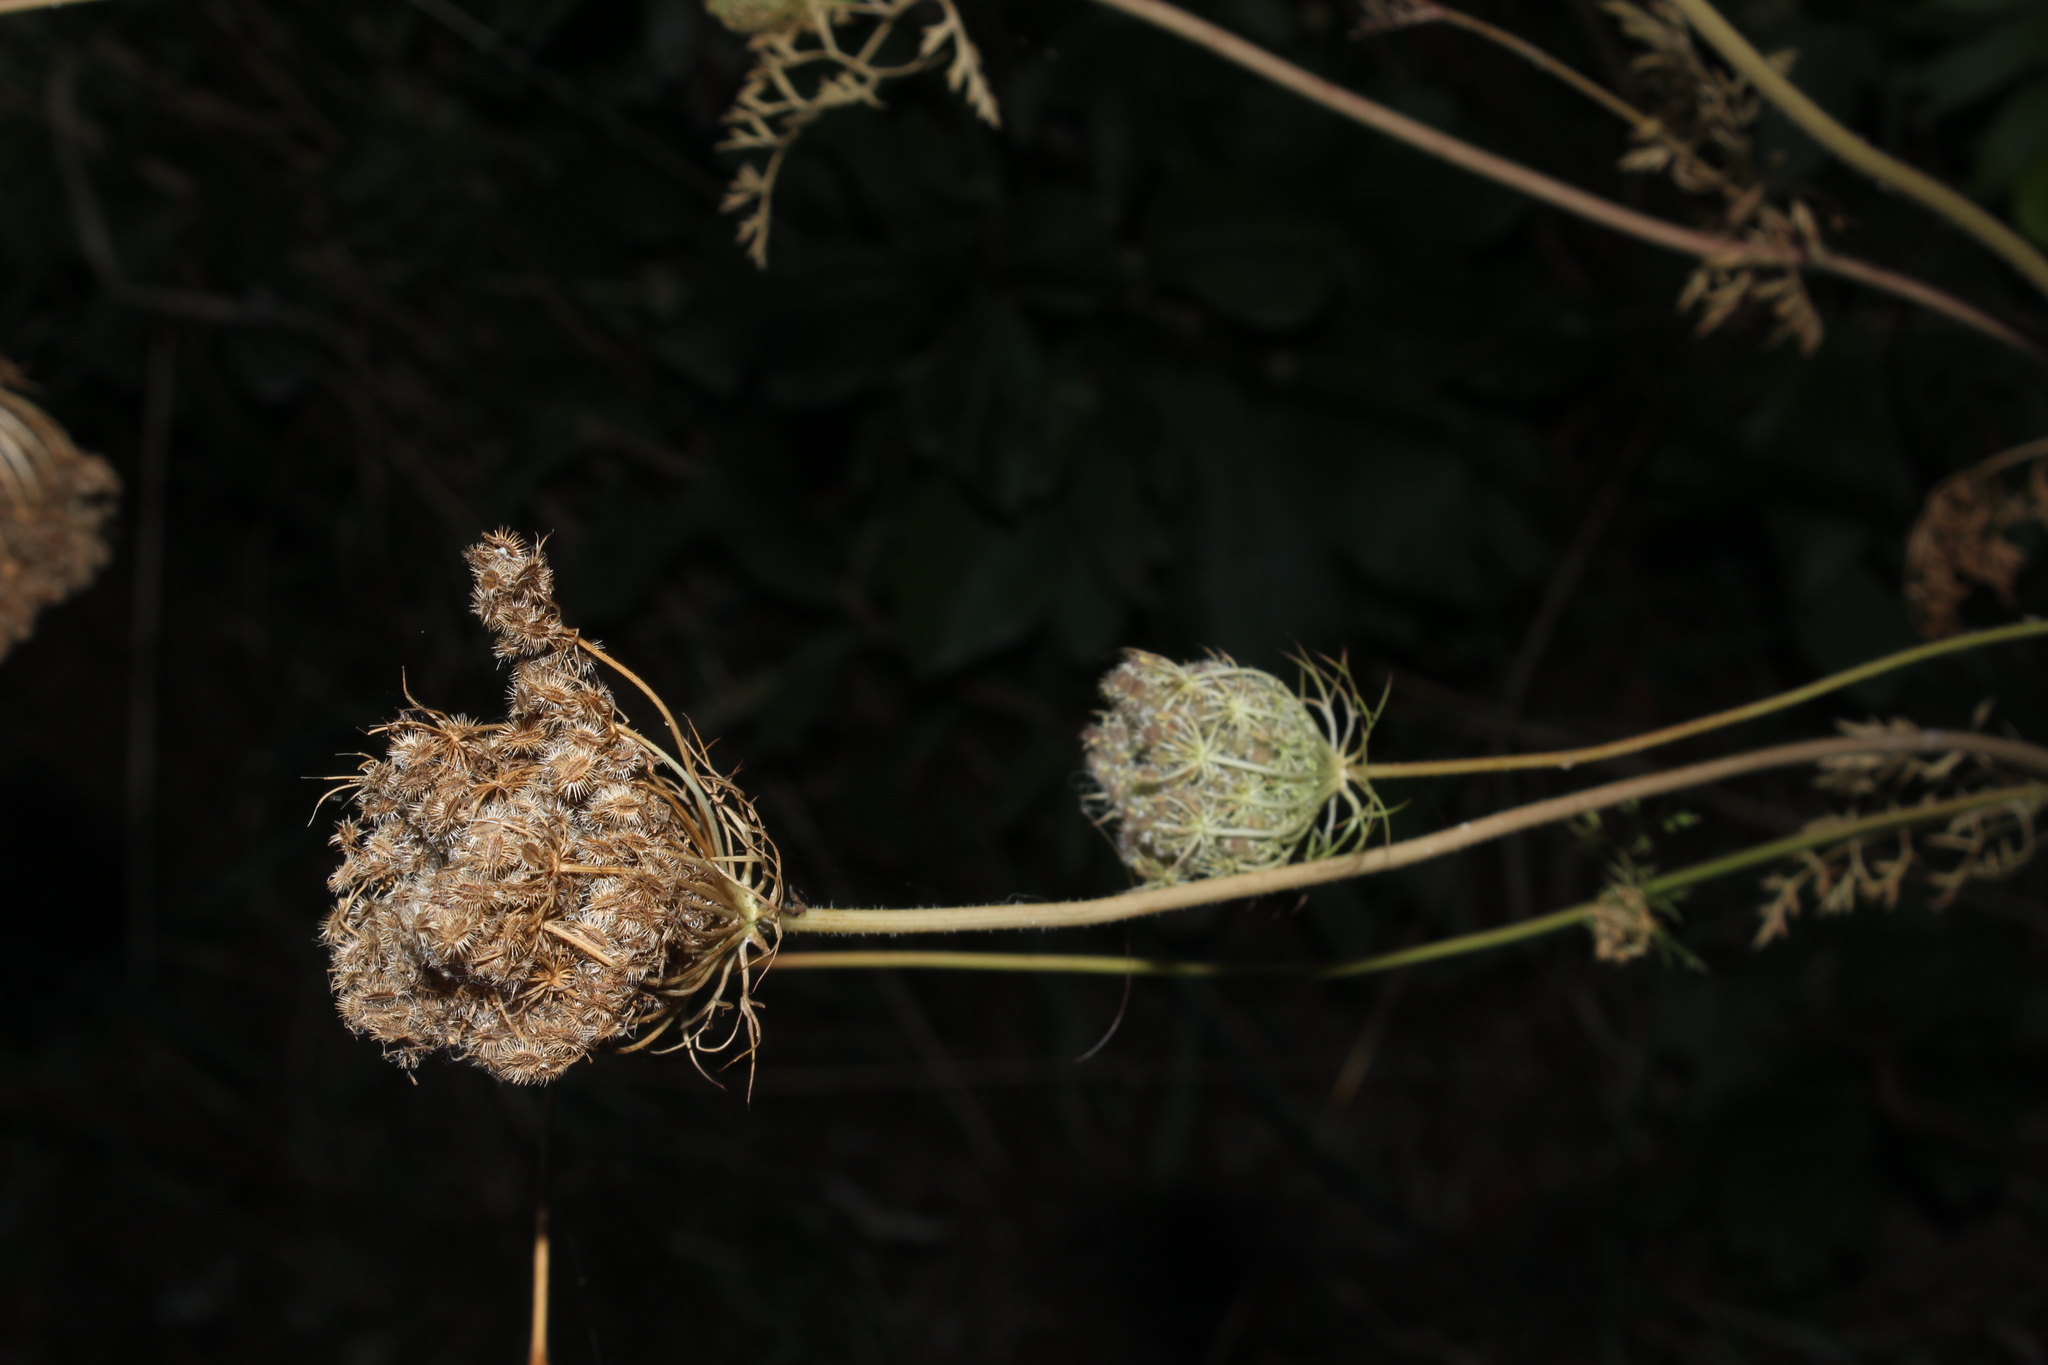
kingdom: Plantae
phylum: Tracheophyta
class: Magnoliopsida
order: Apiales
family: Apiaceae
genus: Daucus
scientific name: Daucus carota
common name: Wild carrot
